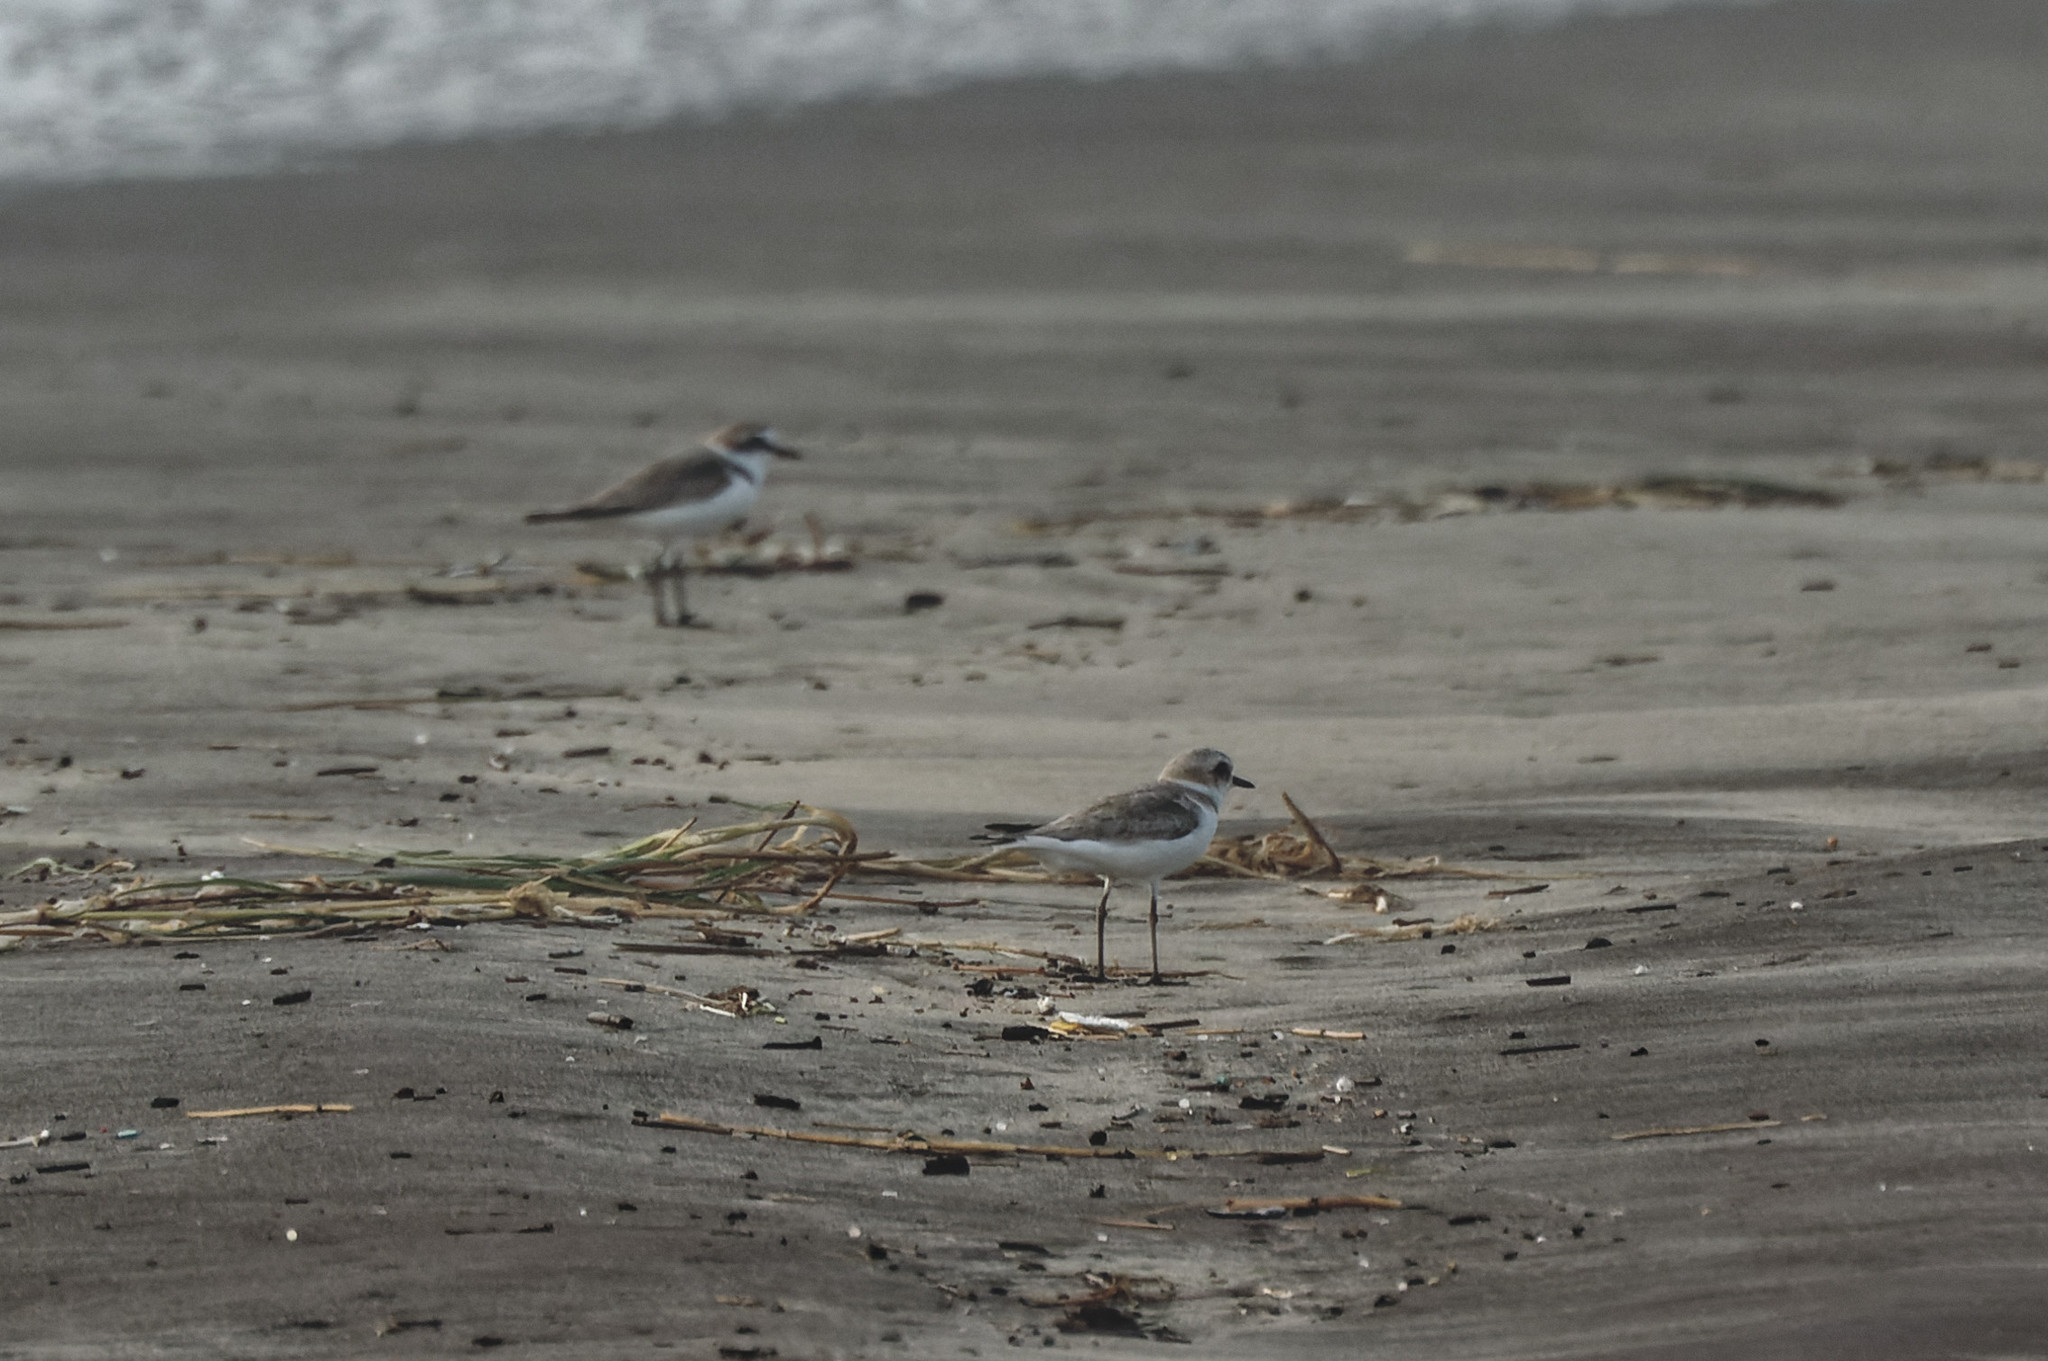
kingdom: Animalia
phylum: Chordata
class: Aves
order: Charadriiformes
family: Charadriidae
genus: Charadrius
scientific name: Charadrius alexandrinus
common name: Kentish plover
